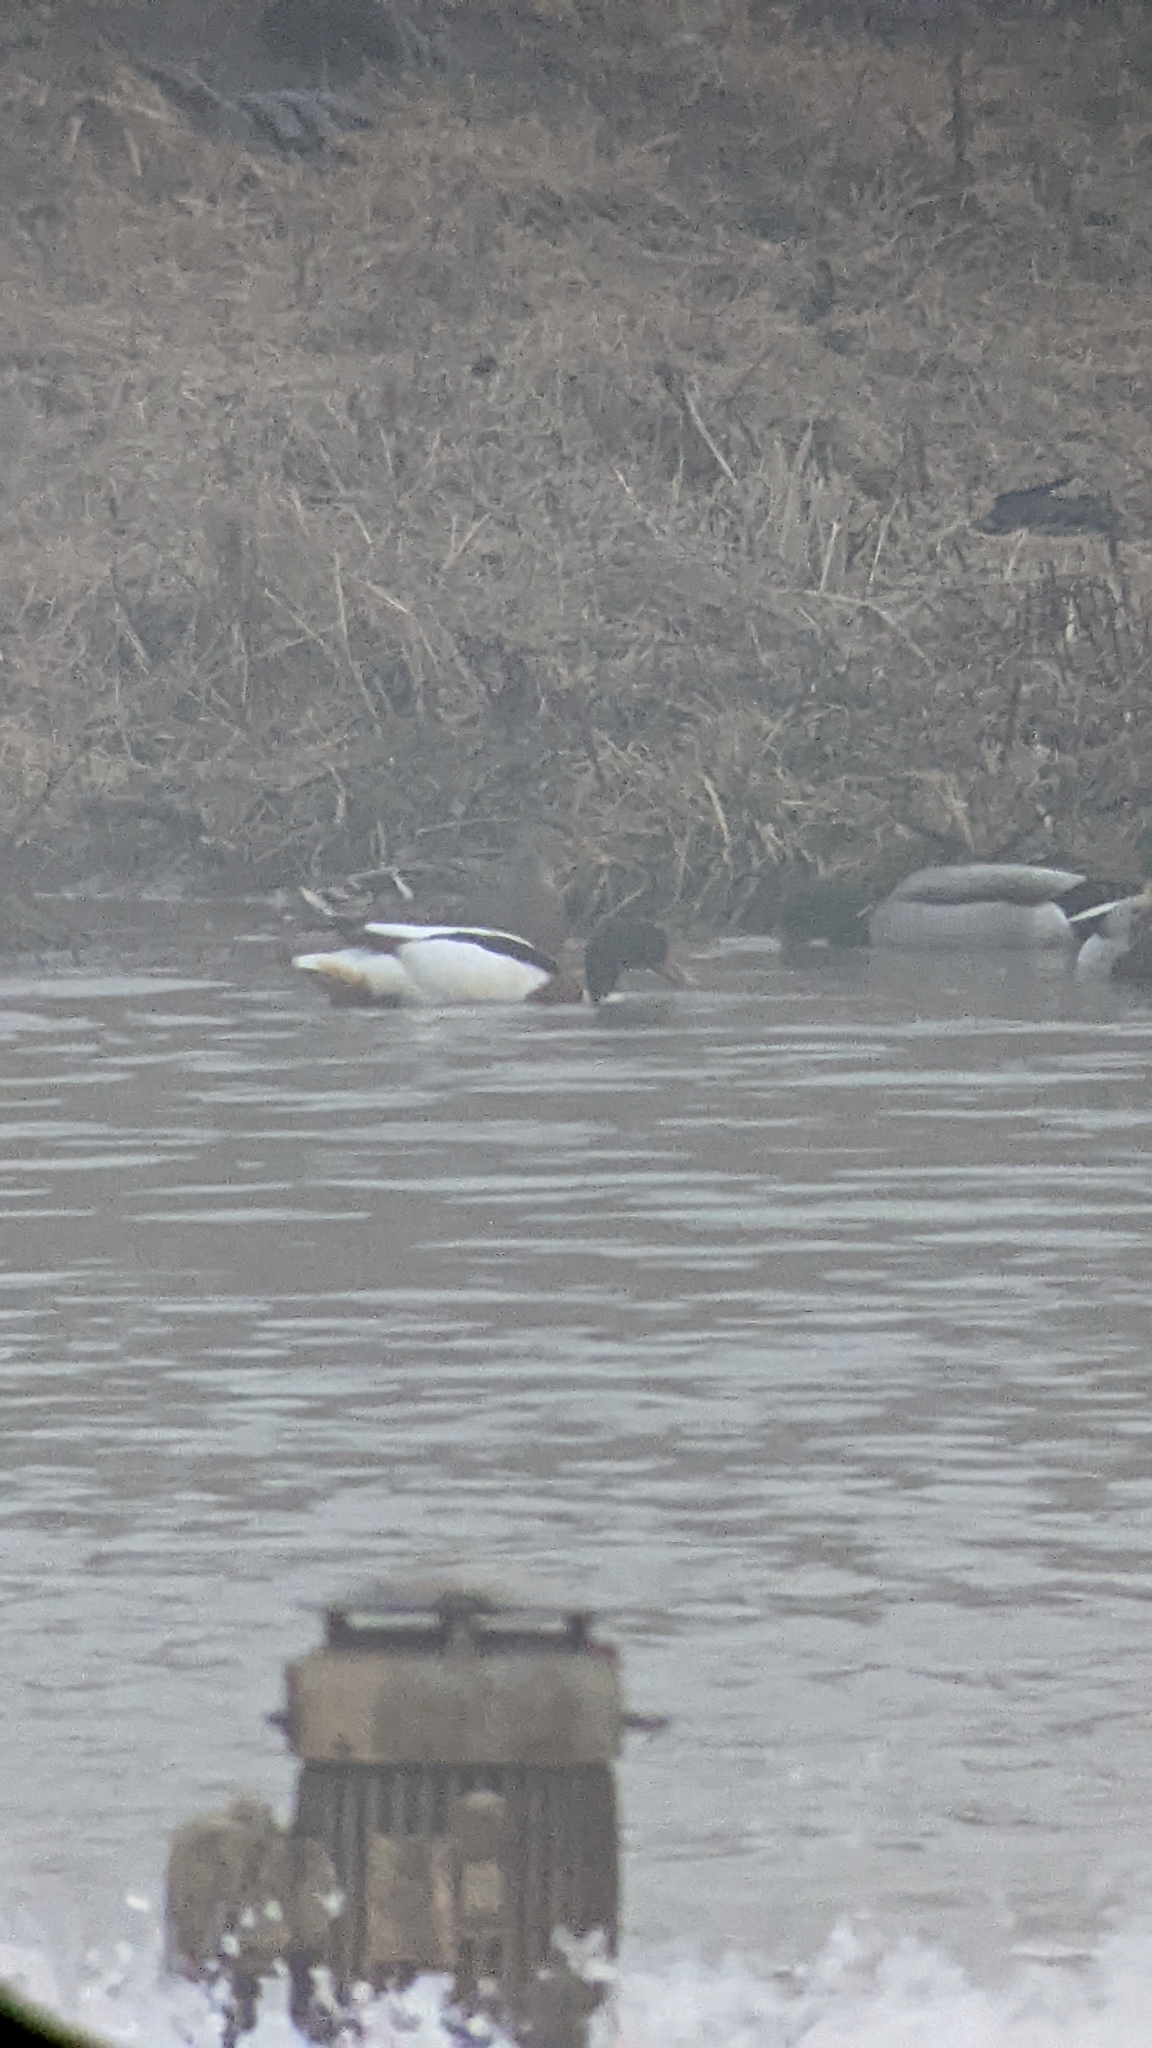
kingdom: Animalia
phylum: Chordata
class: Aves
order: Anseriformes
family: Anatidae
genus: Tadorna
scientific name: Tadorna tadorna
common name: Common shelduck
